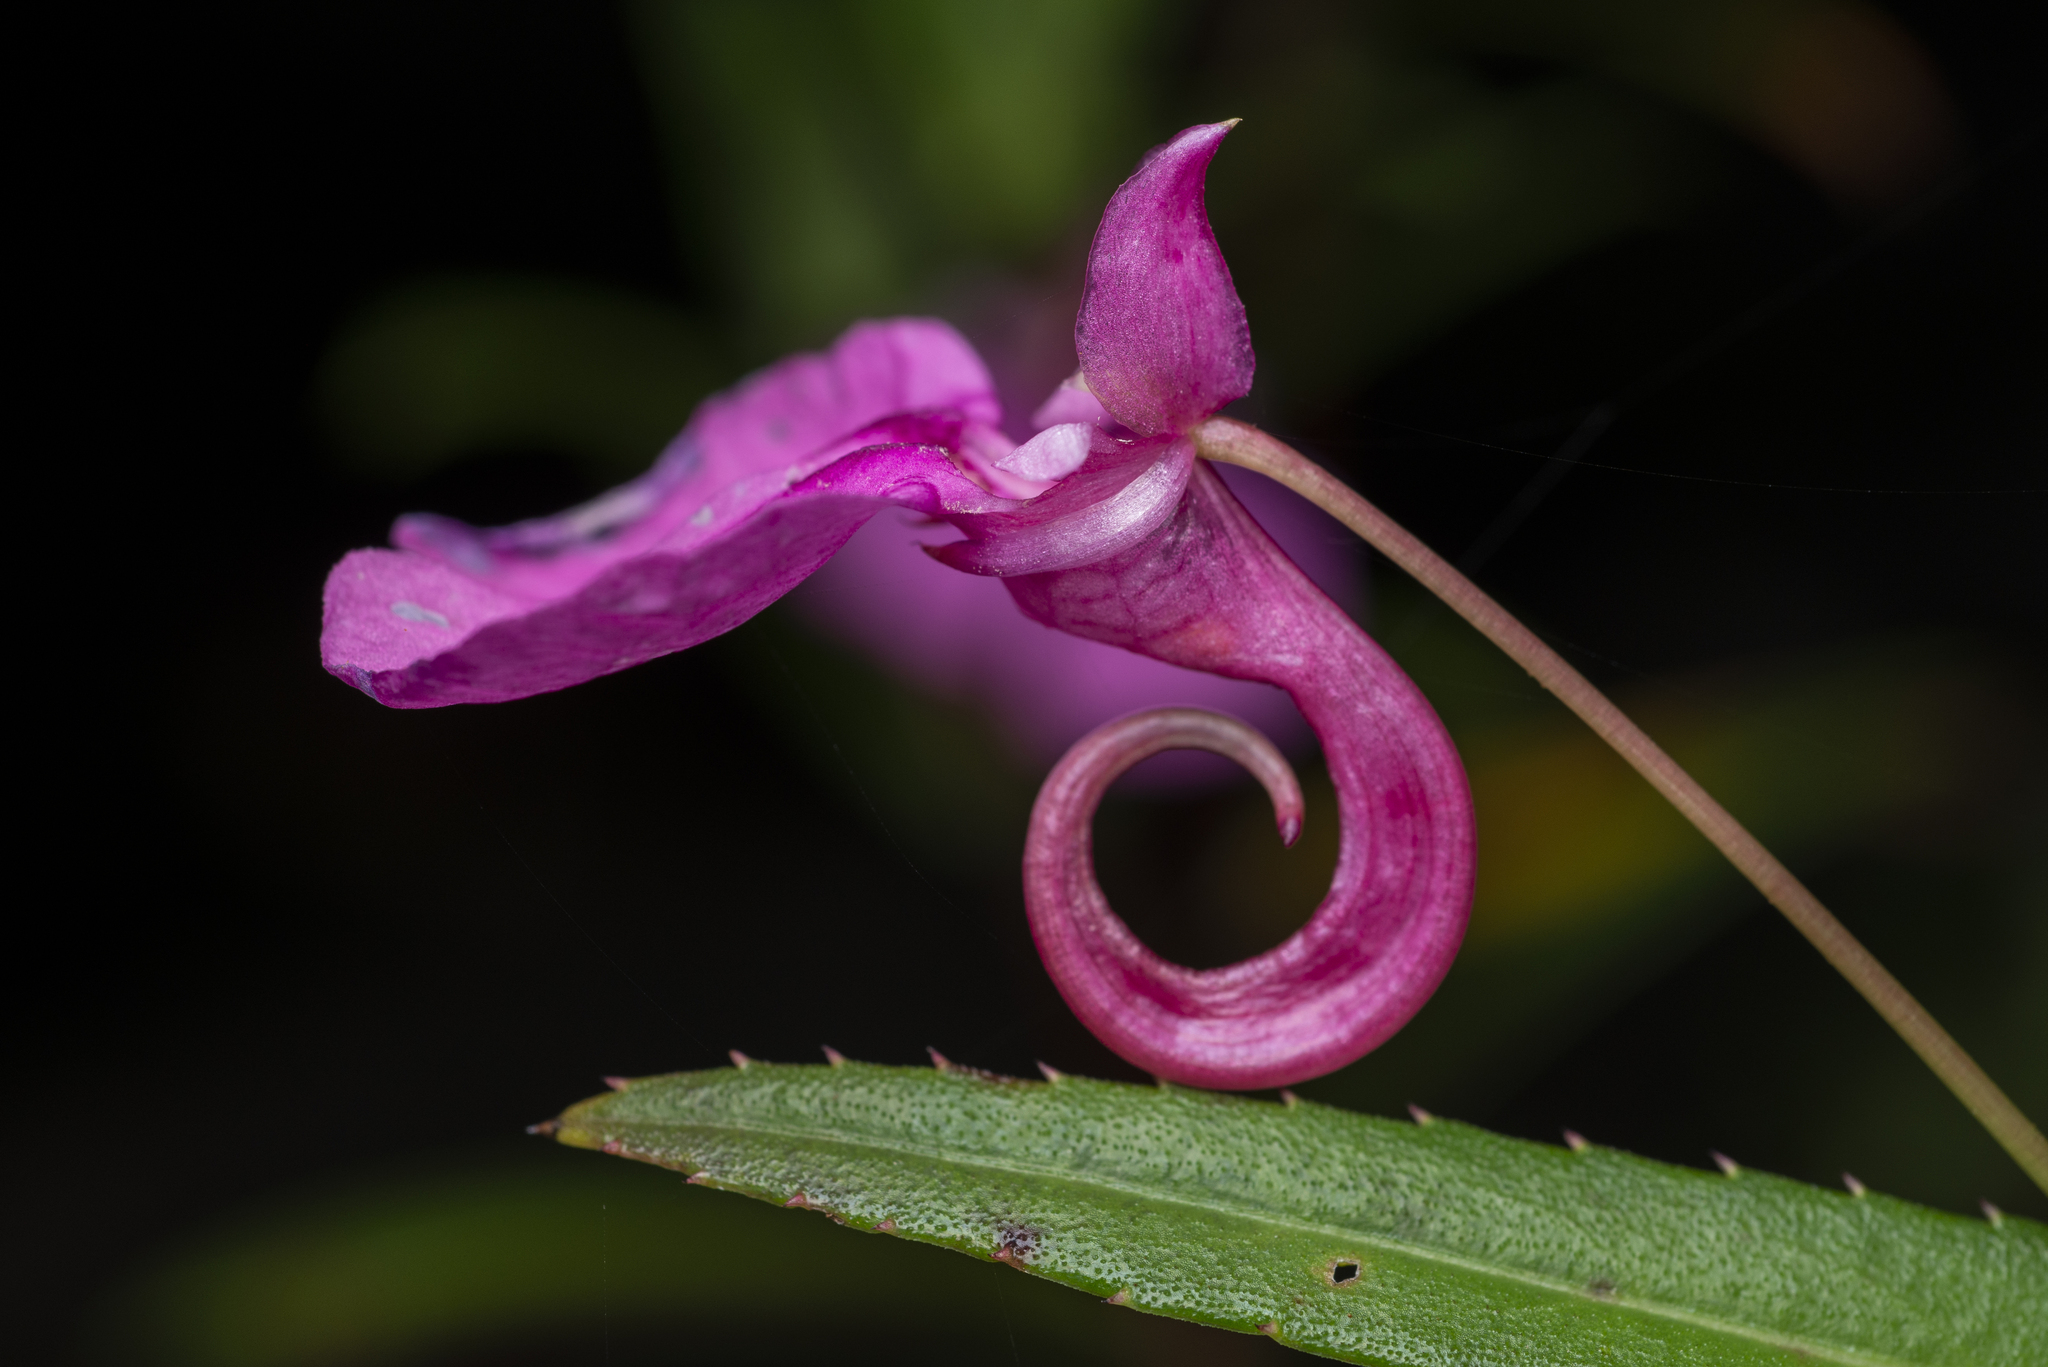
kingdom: Plantae
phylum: Tracheophyta
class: Magnoliopsida
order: Ericales
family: Balsaminaceae
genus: Impatiens
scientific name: Impatiens chinensis
